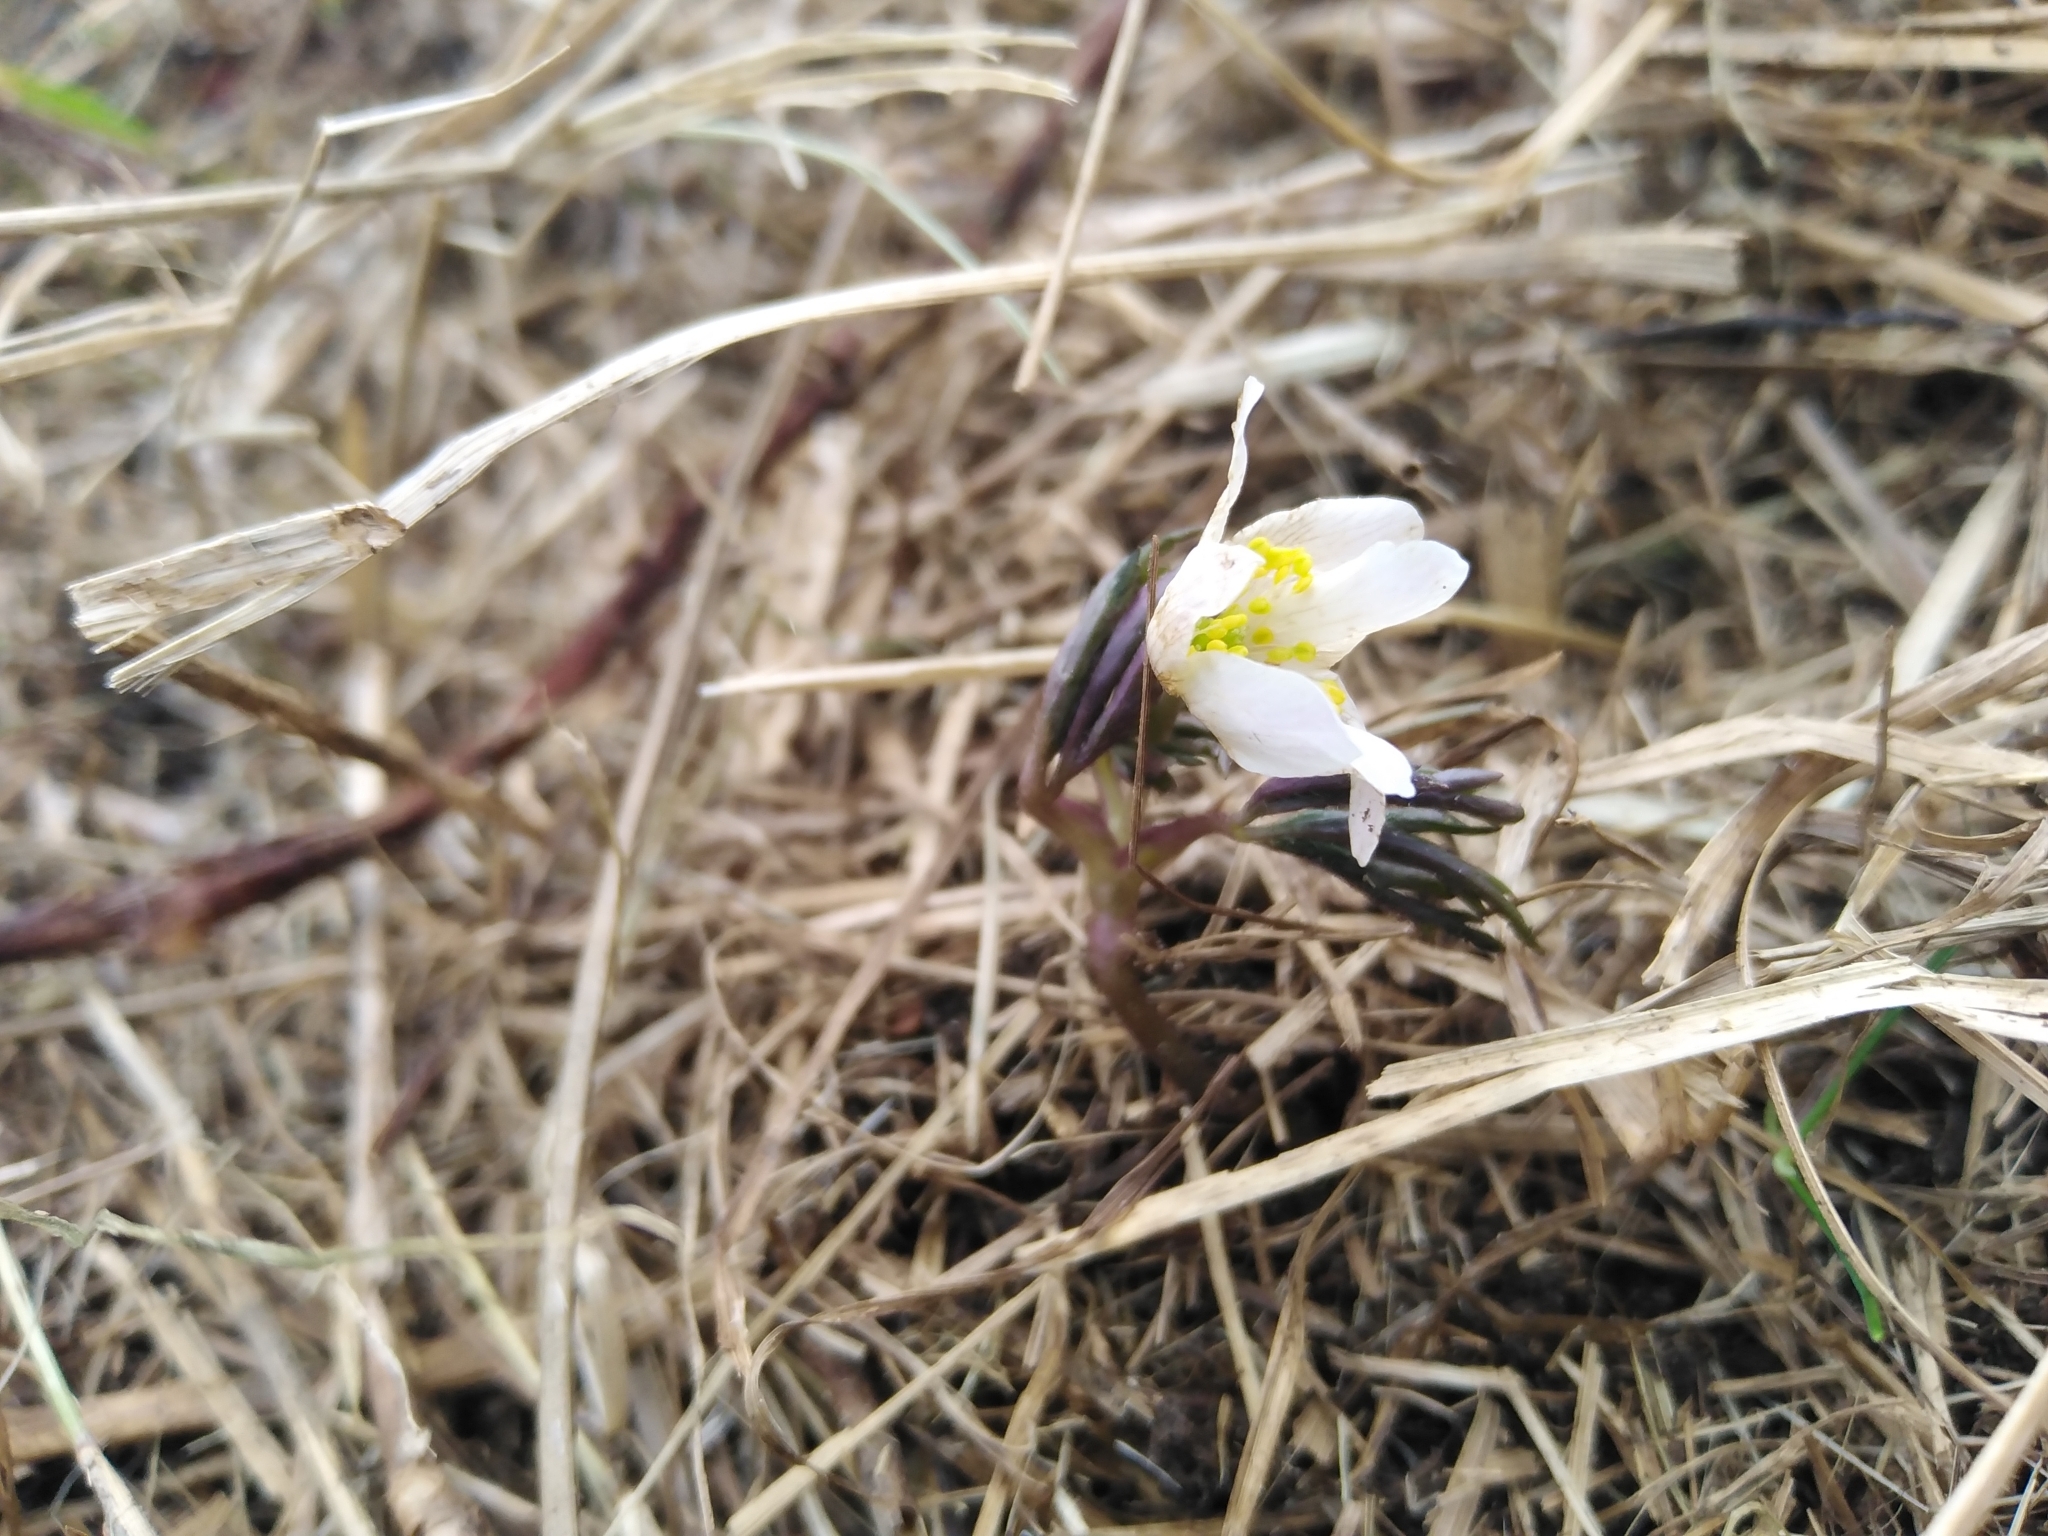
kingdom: Plantae
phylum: Tracheophyta
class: Magnoliopsida
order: Ranunculales
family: Ranunculaceae
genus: Anemone
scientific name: Anemone nemorosa
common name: Wood anemone
